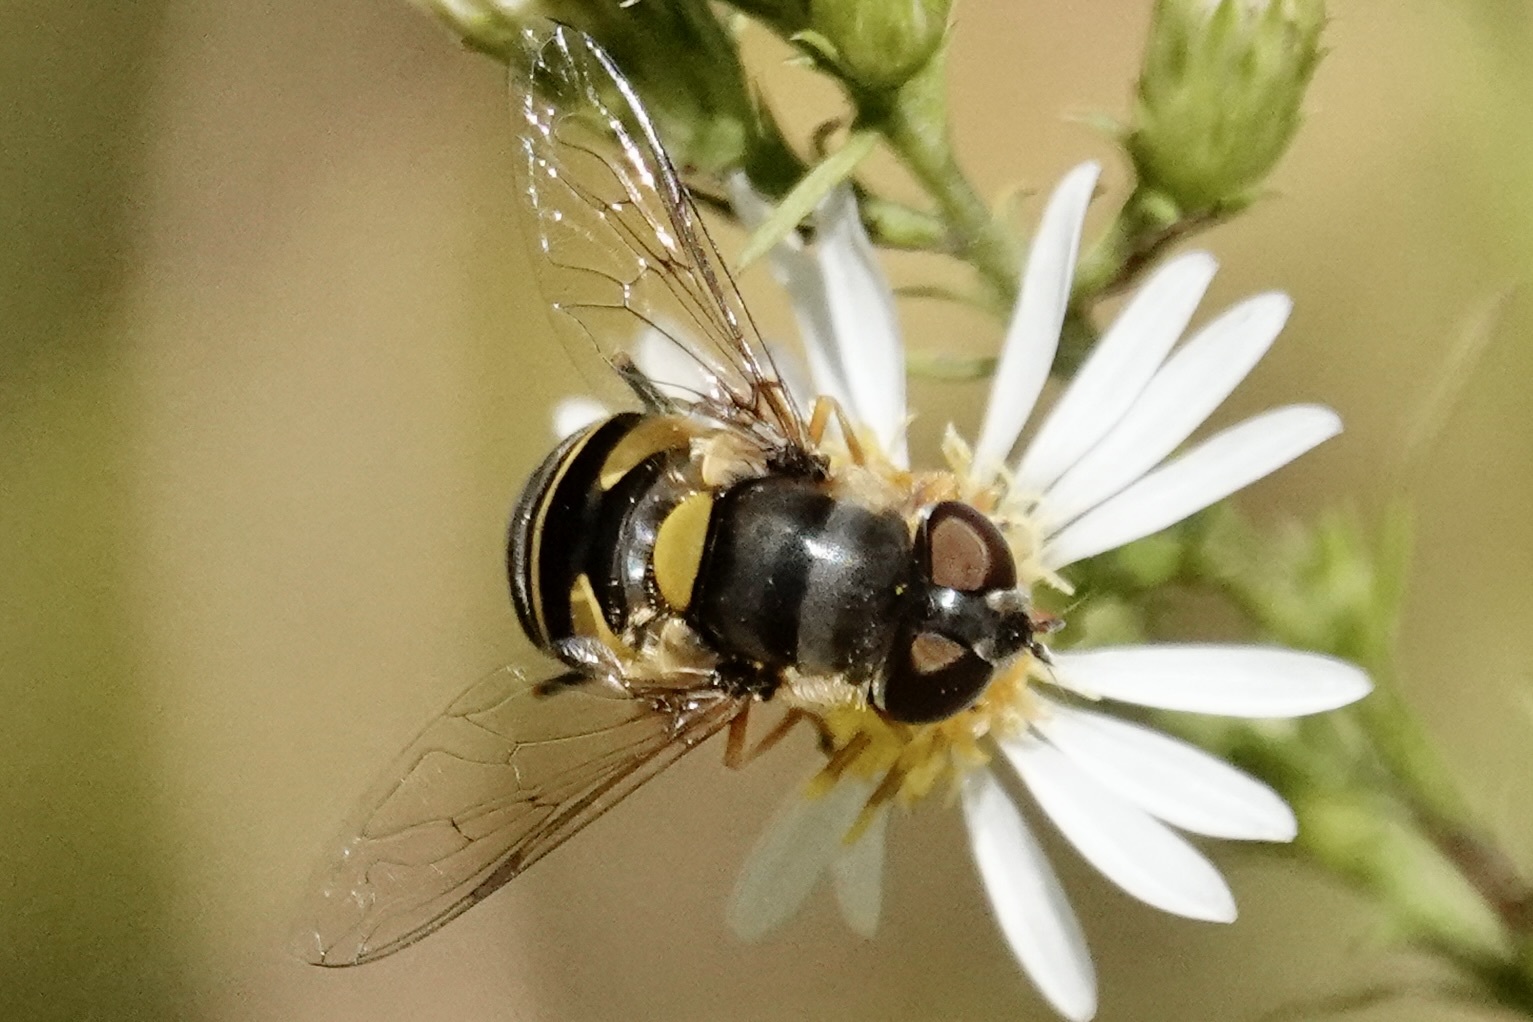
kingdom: Animalia
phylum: Arthropoda
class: Insecta
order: Diptera
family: Syrphidae
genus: Eristalis
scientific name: Eristalis transversa
